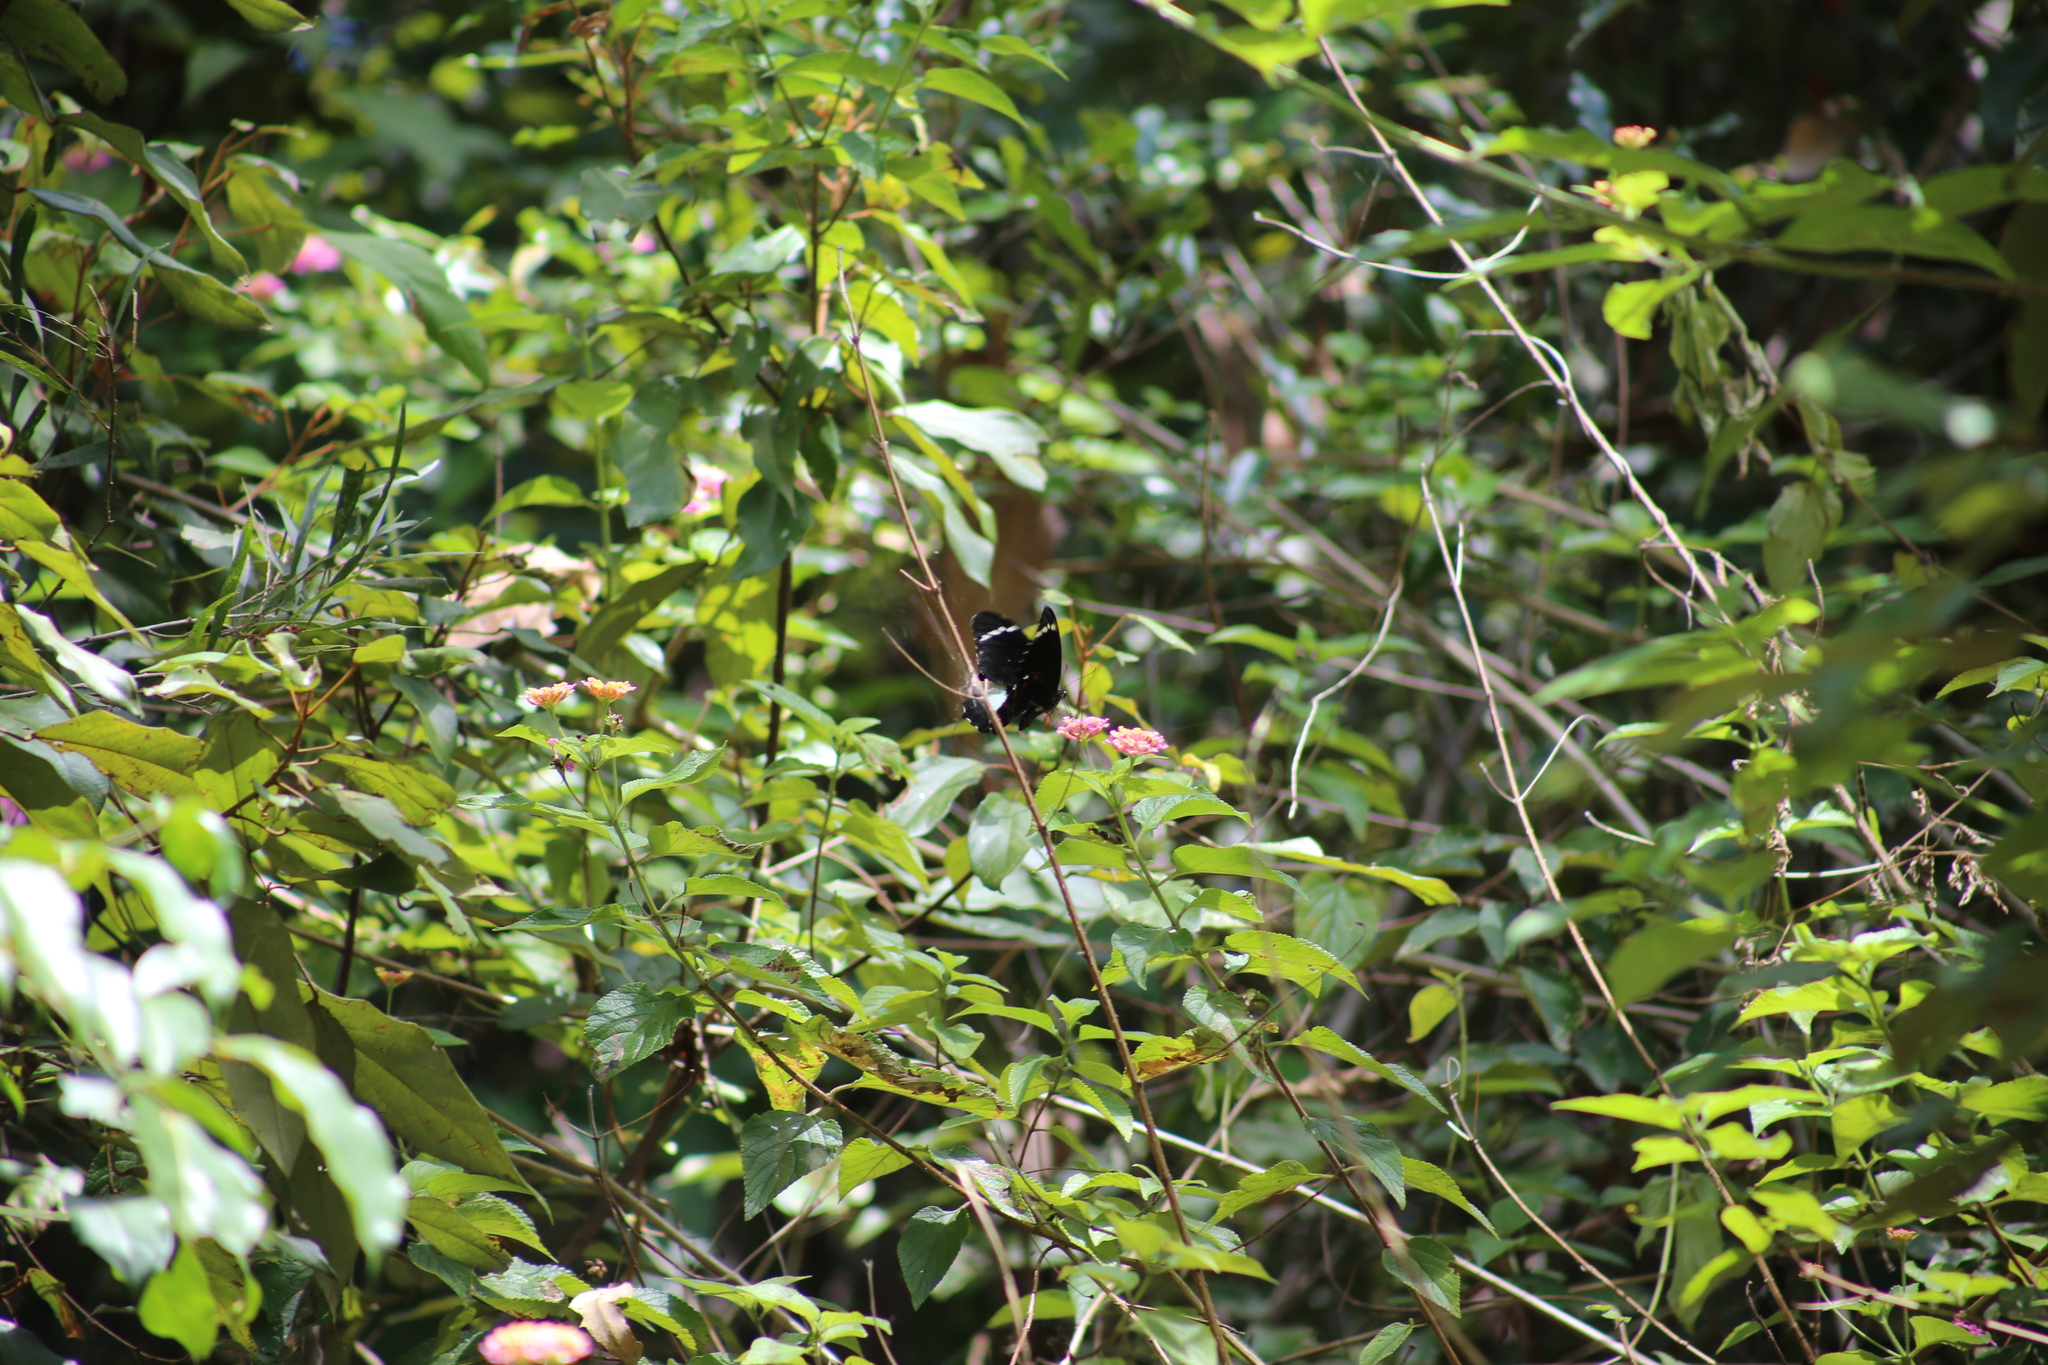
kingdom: Animalia
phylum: Arthropoda
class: Insecta
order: Lepidoptera
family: Papilionidae
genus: Papilio
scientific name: Papilio aegeus
